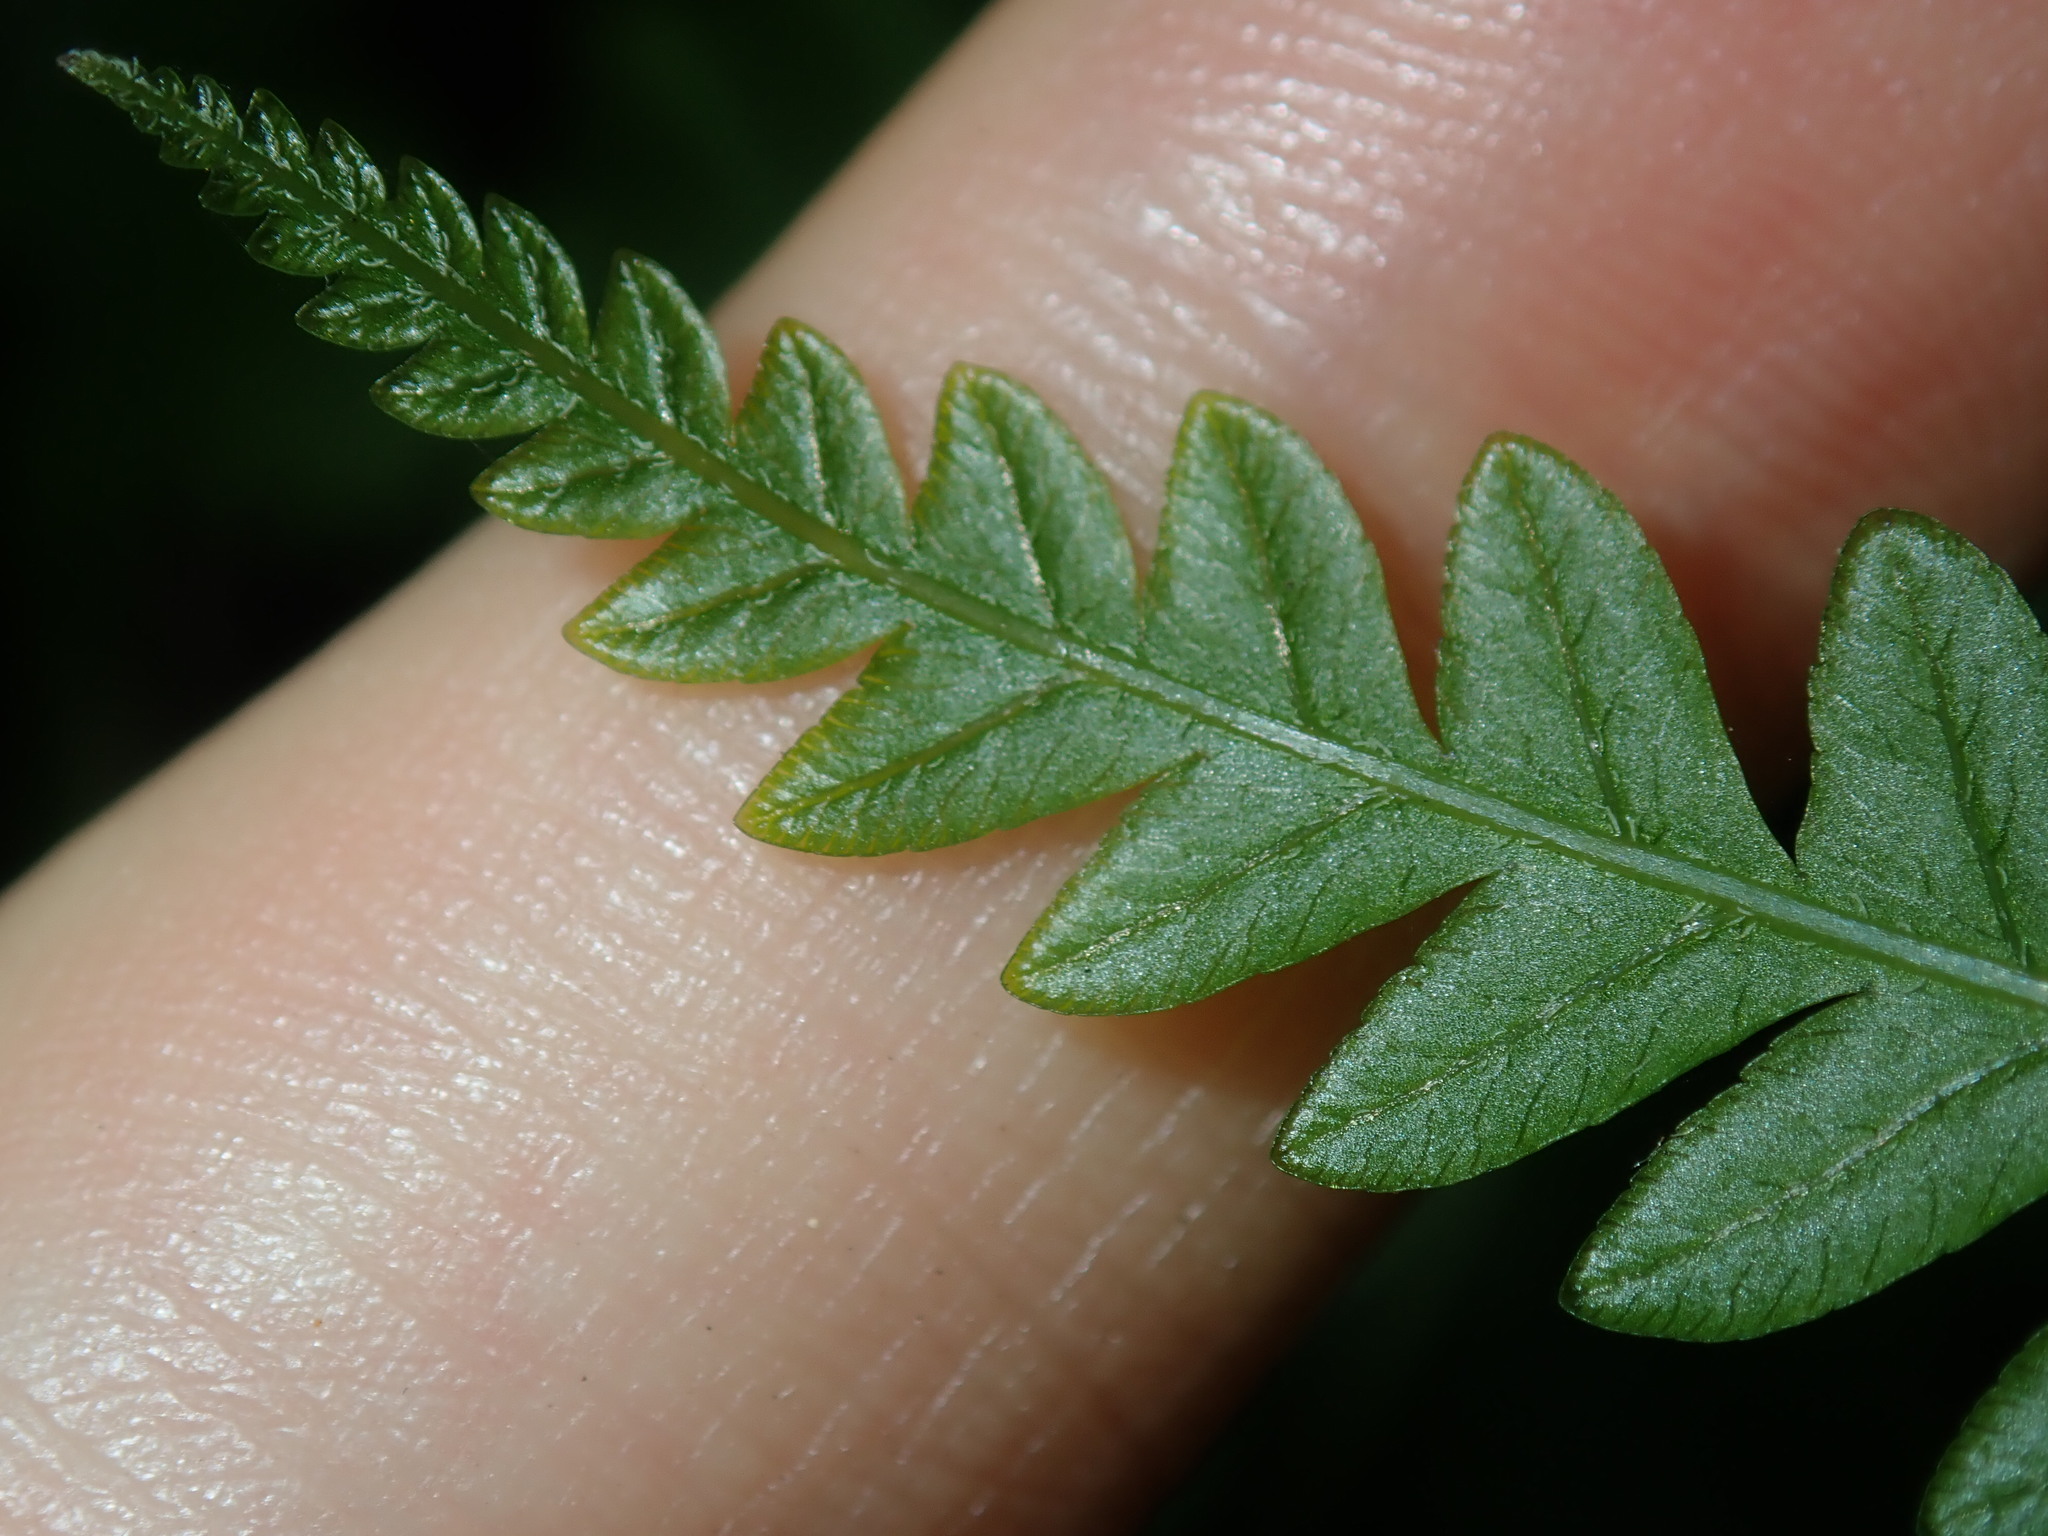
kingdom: Plantae
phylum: Tracheophyta
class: Polypodiopsida
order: Polypodiales
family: Pteridaceae
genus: Pteris
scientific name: Pteris tremula
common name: Australian brake
